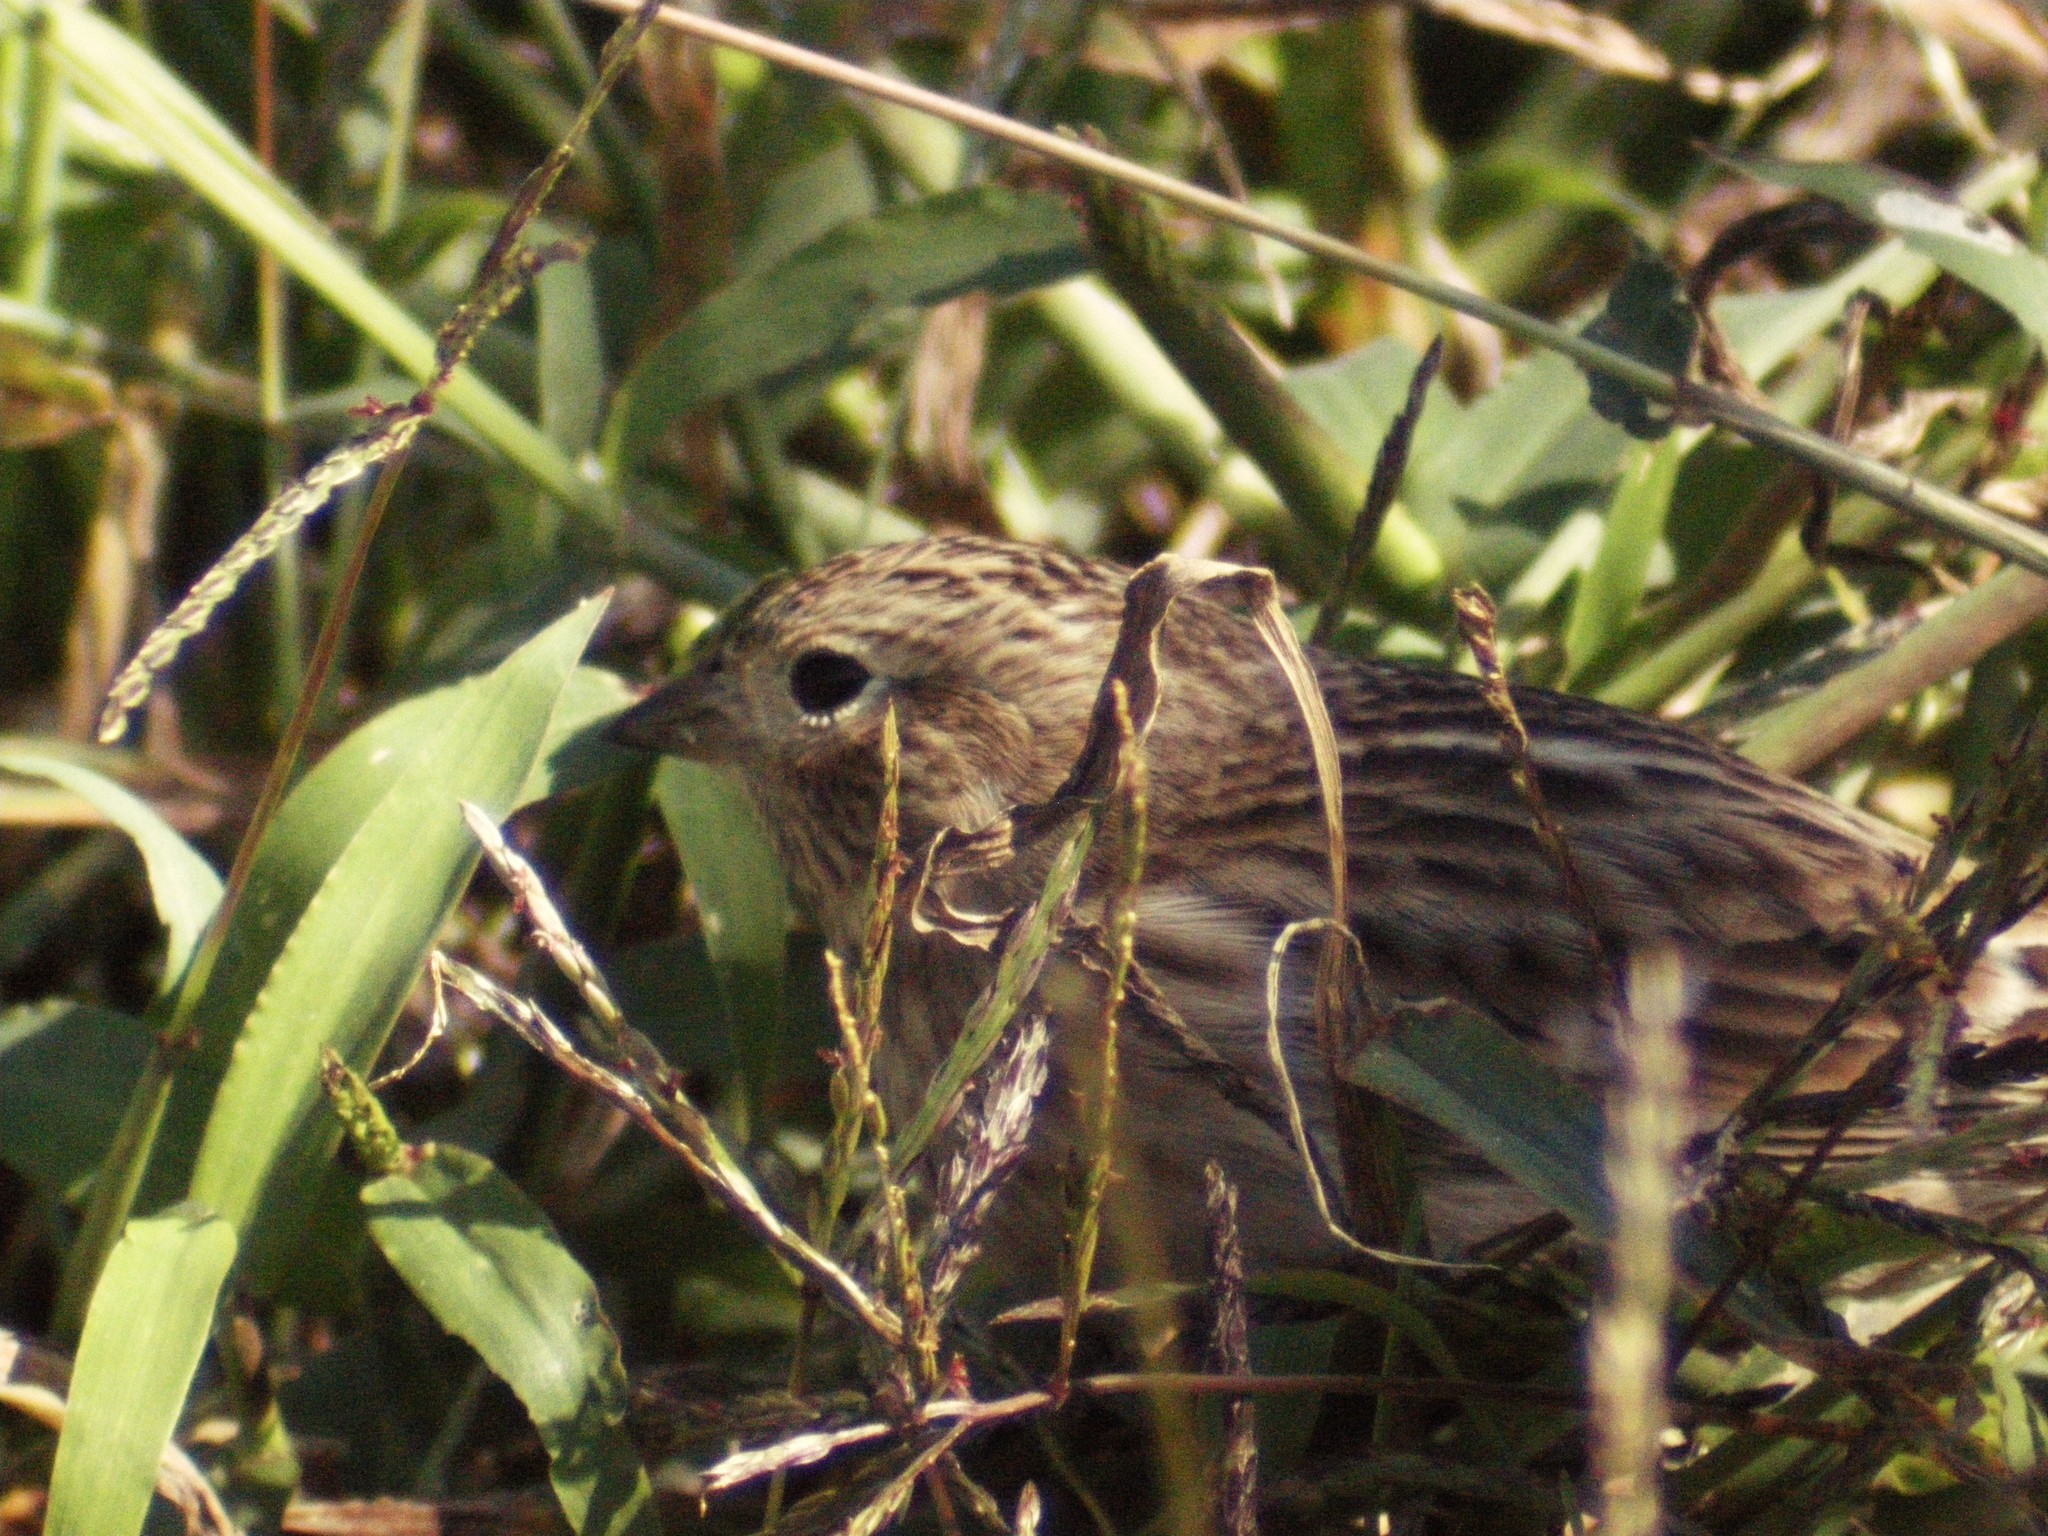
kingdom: Animalia
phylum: Chordata
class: Aves
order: Passeriformes
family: Passerellidae
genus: Pooecetes
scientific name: Pooecetes gramineus
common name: Vesper sparrow
